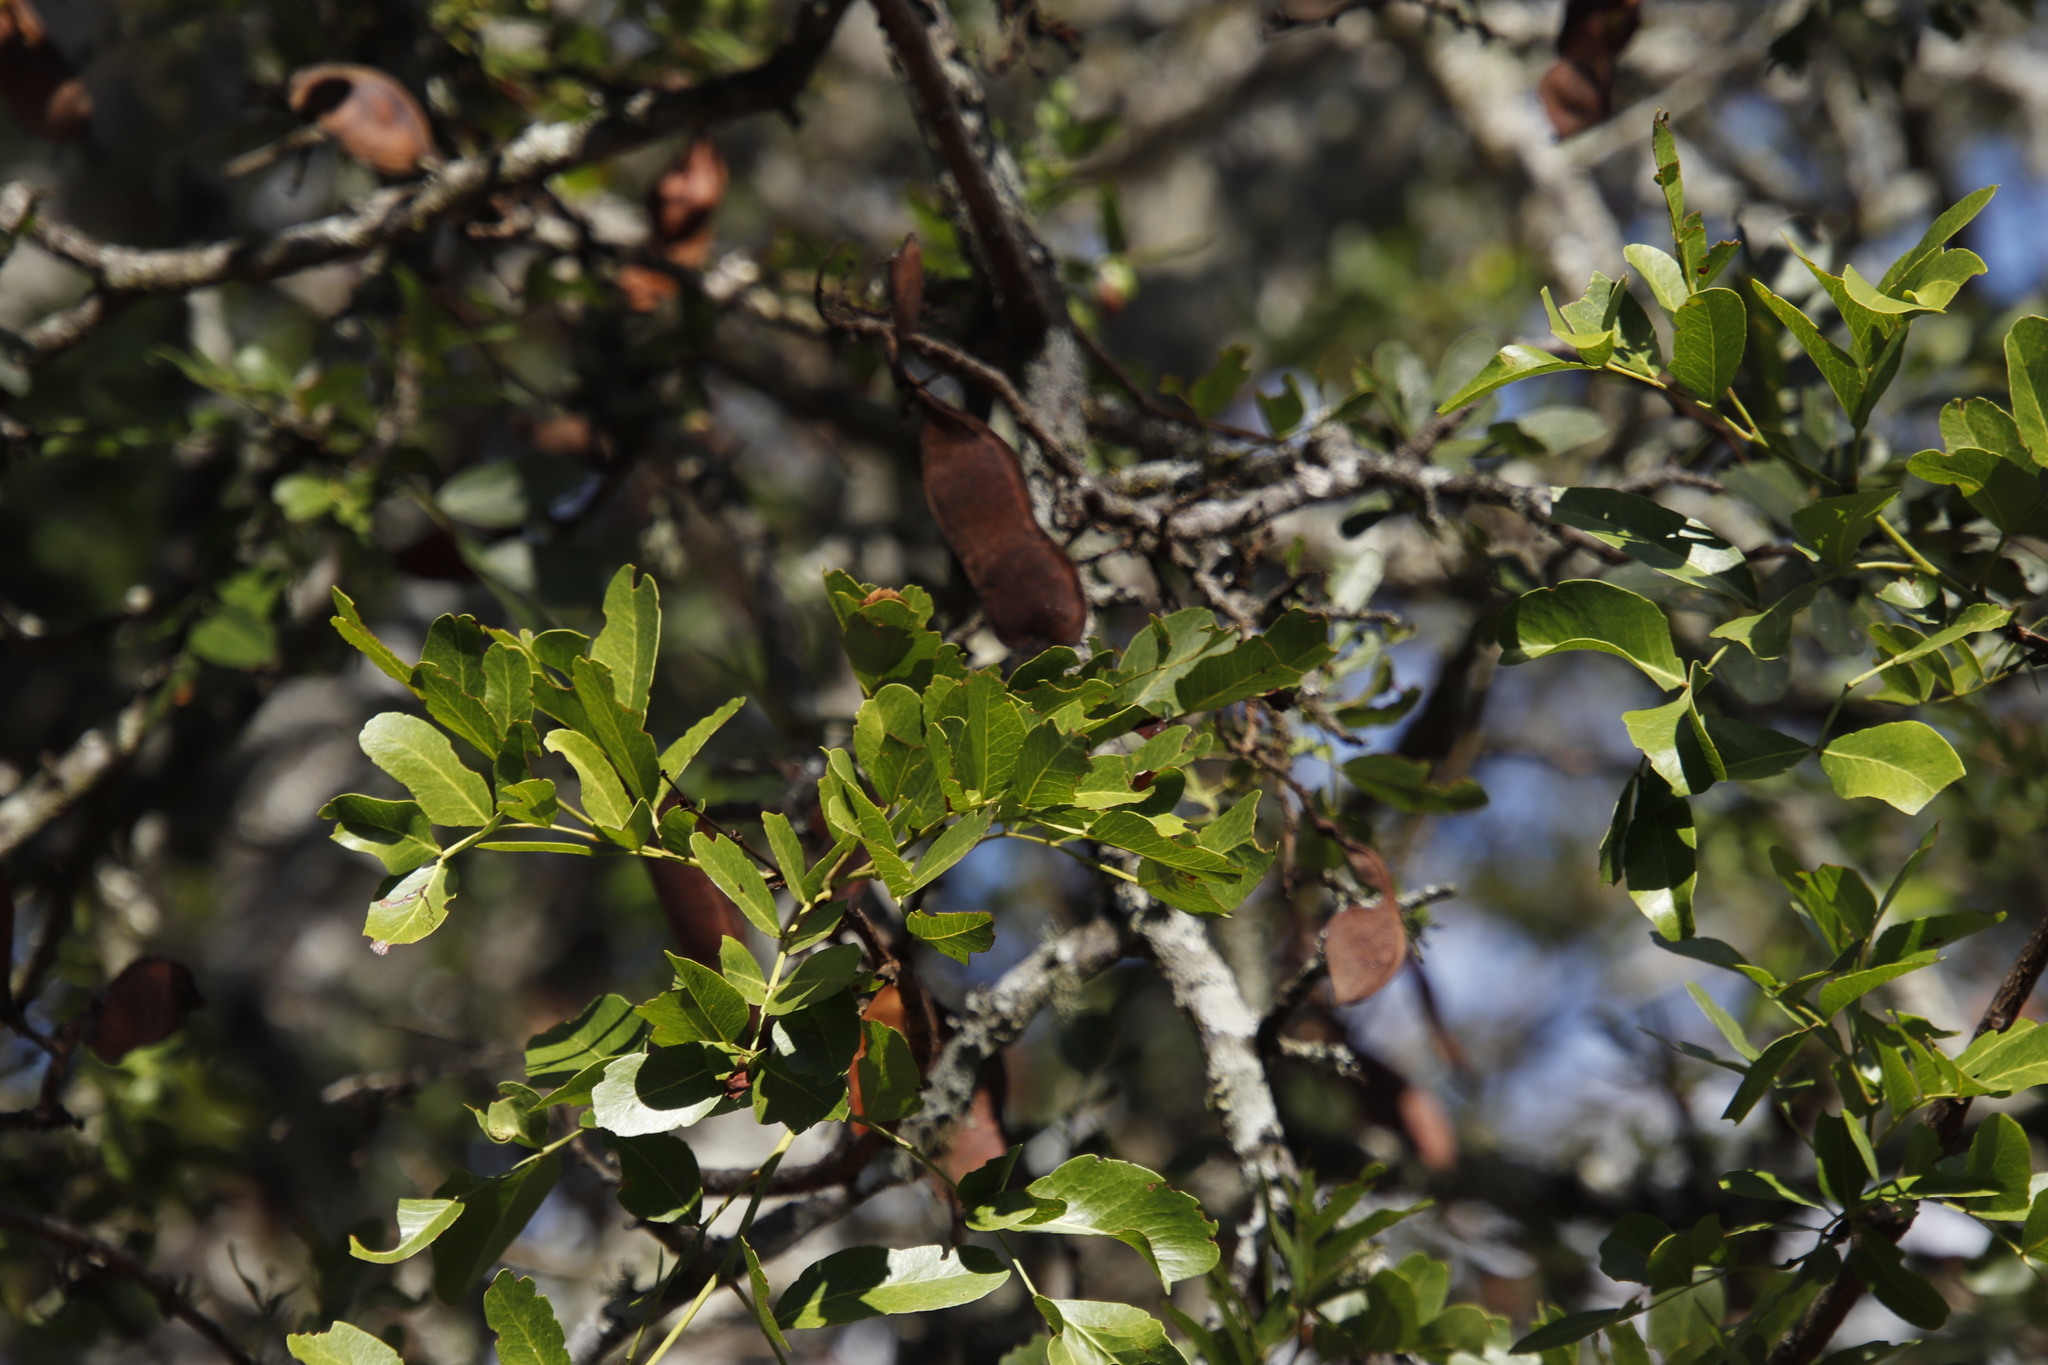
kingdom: Plantae
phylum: Tracheophyta
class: Magnoliopsida
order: Fabales
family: Fabaceae
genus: Schotia
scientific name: Schotia brachypetala
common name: Weeping boer-bean
